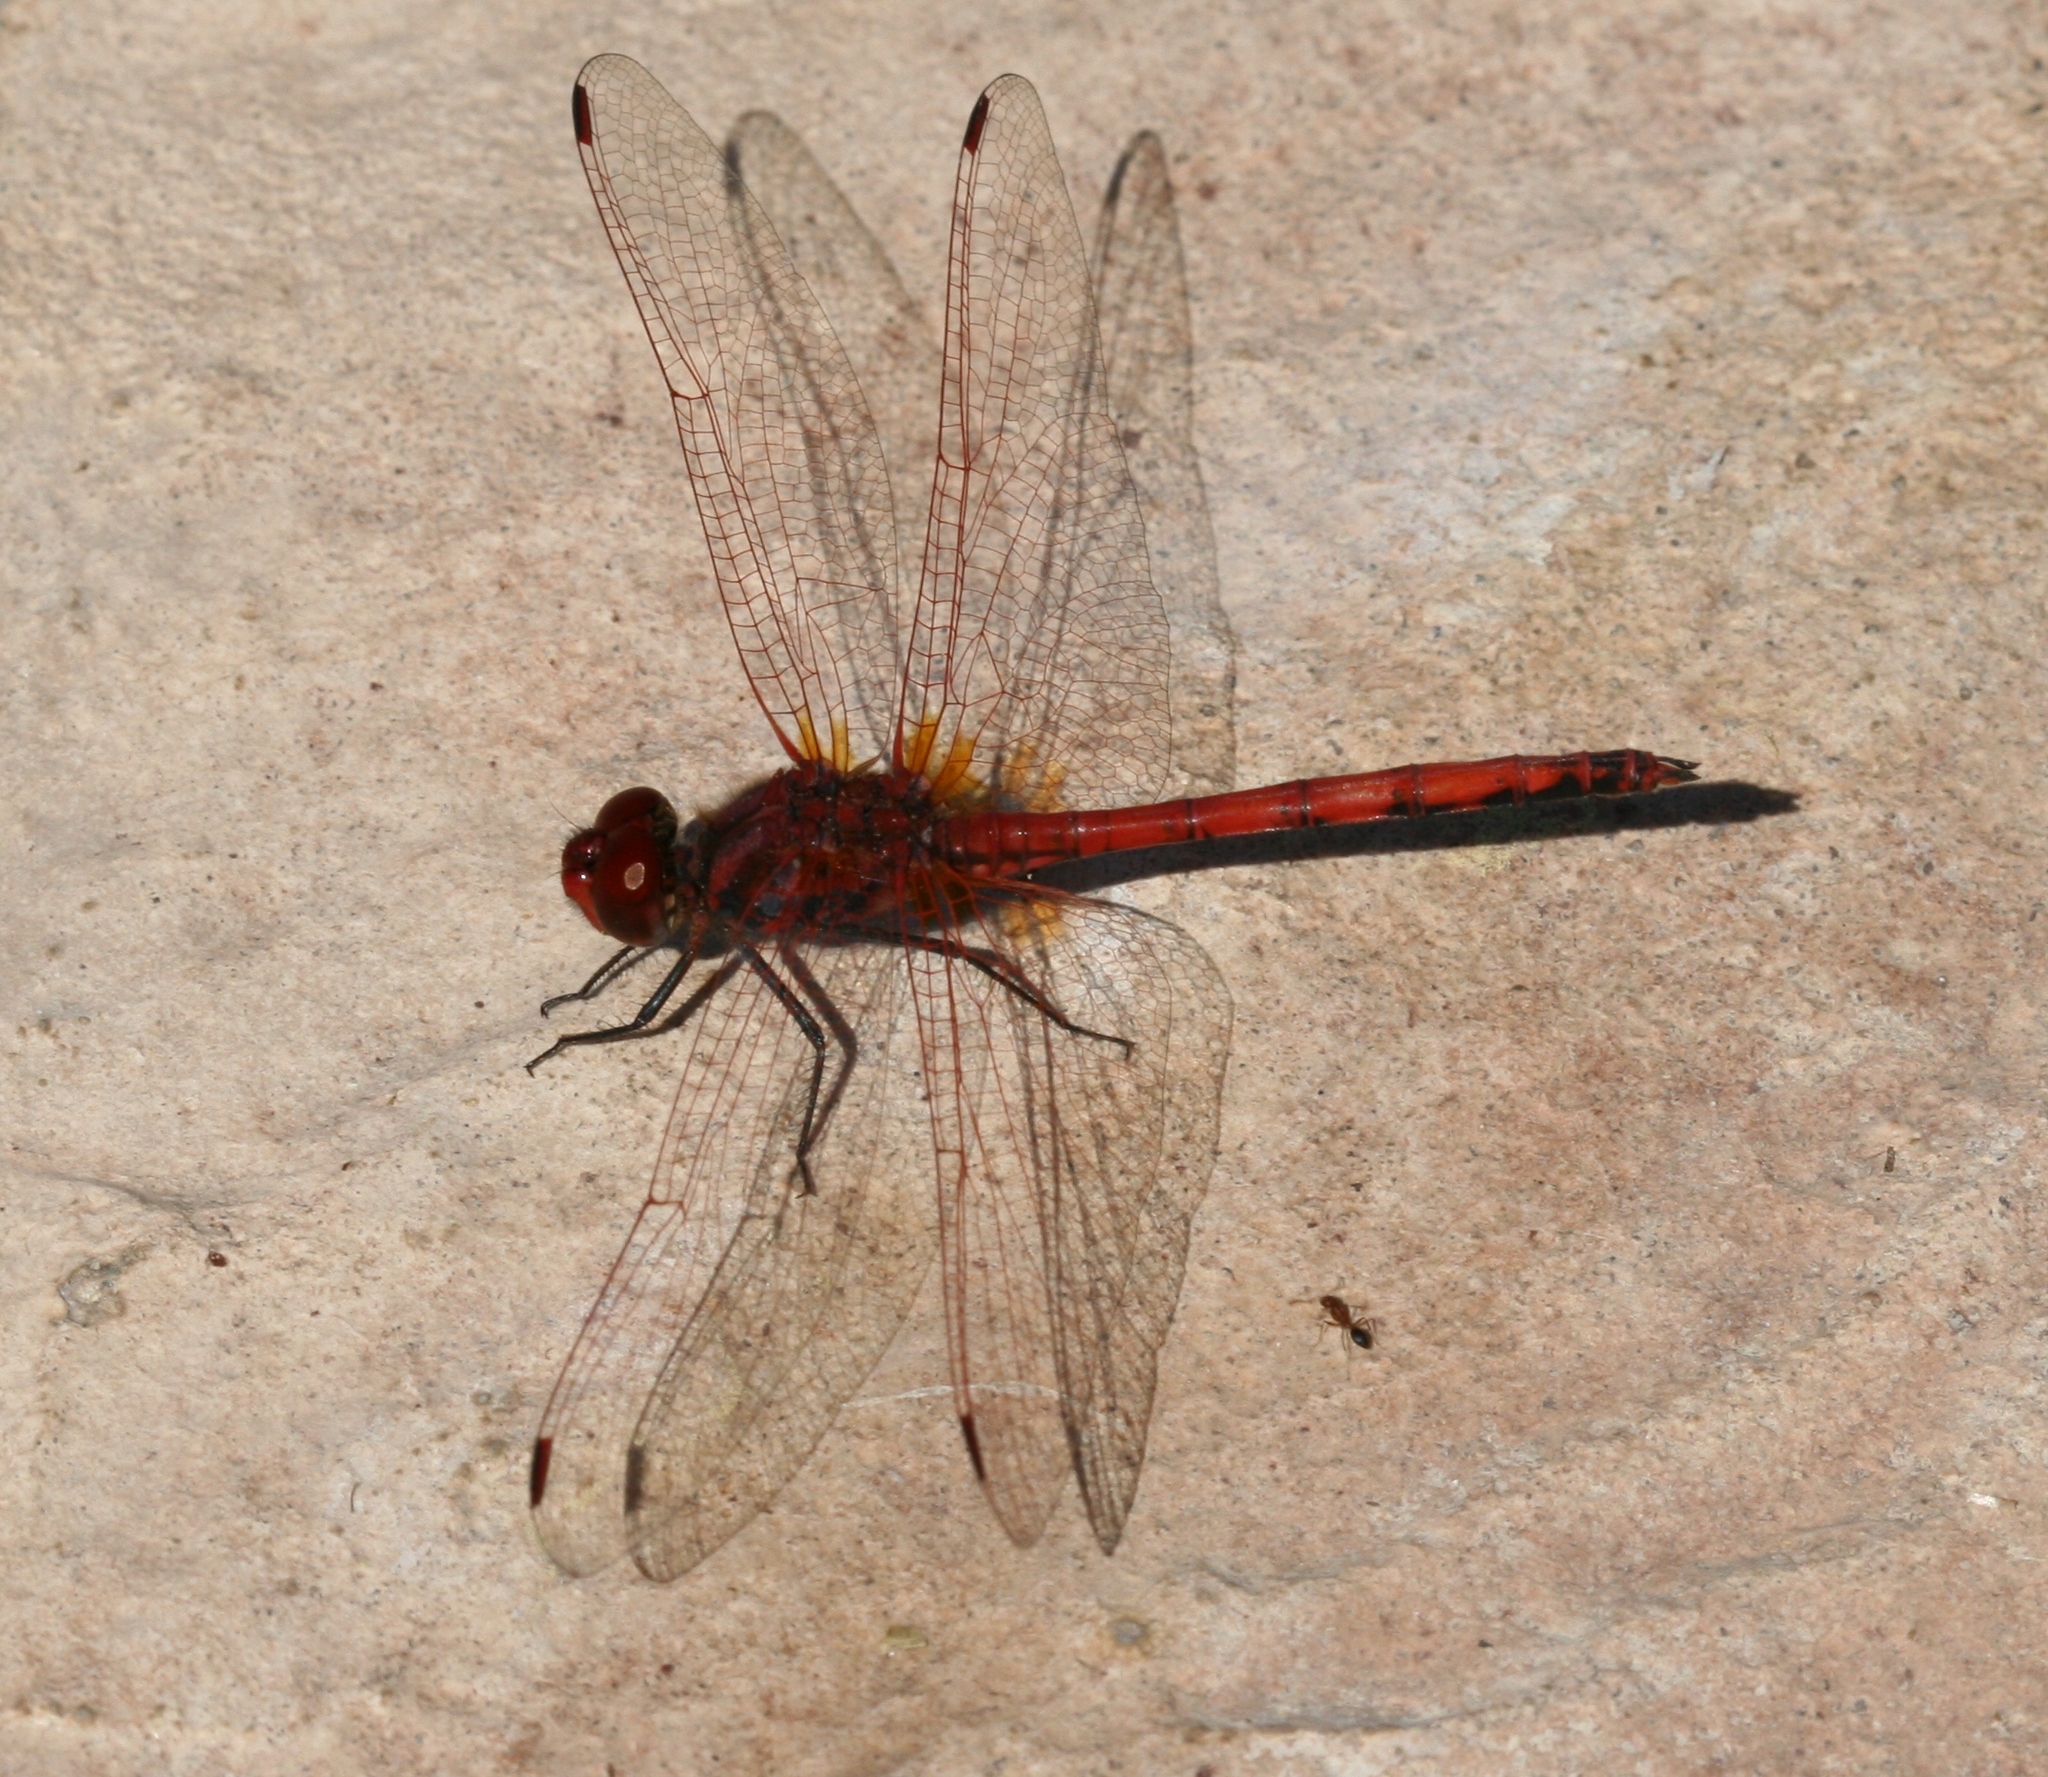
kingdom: Animalia
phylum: Arthropoda
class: Insecta
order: Odonata
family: Libellulidae
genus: Trithemis
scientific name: Trithemis arteriosa
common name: Red-veined dropwing
